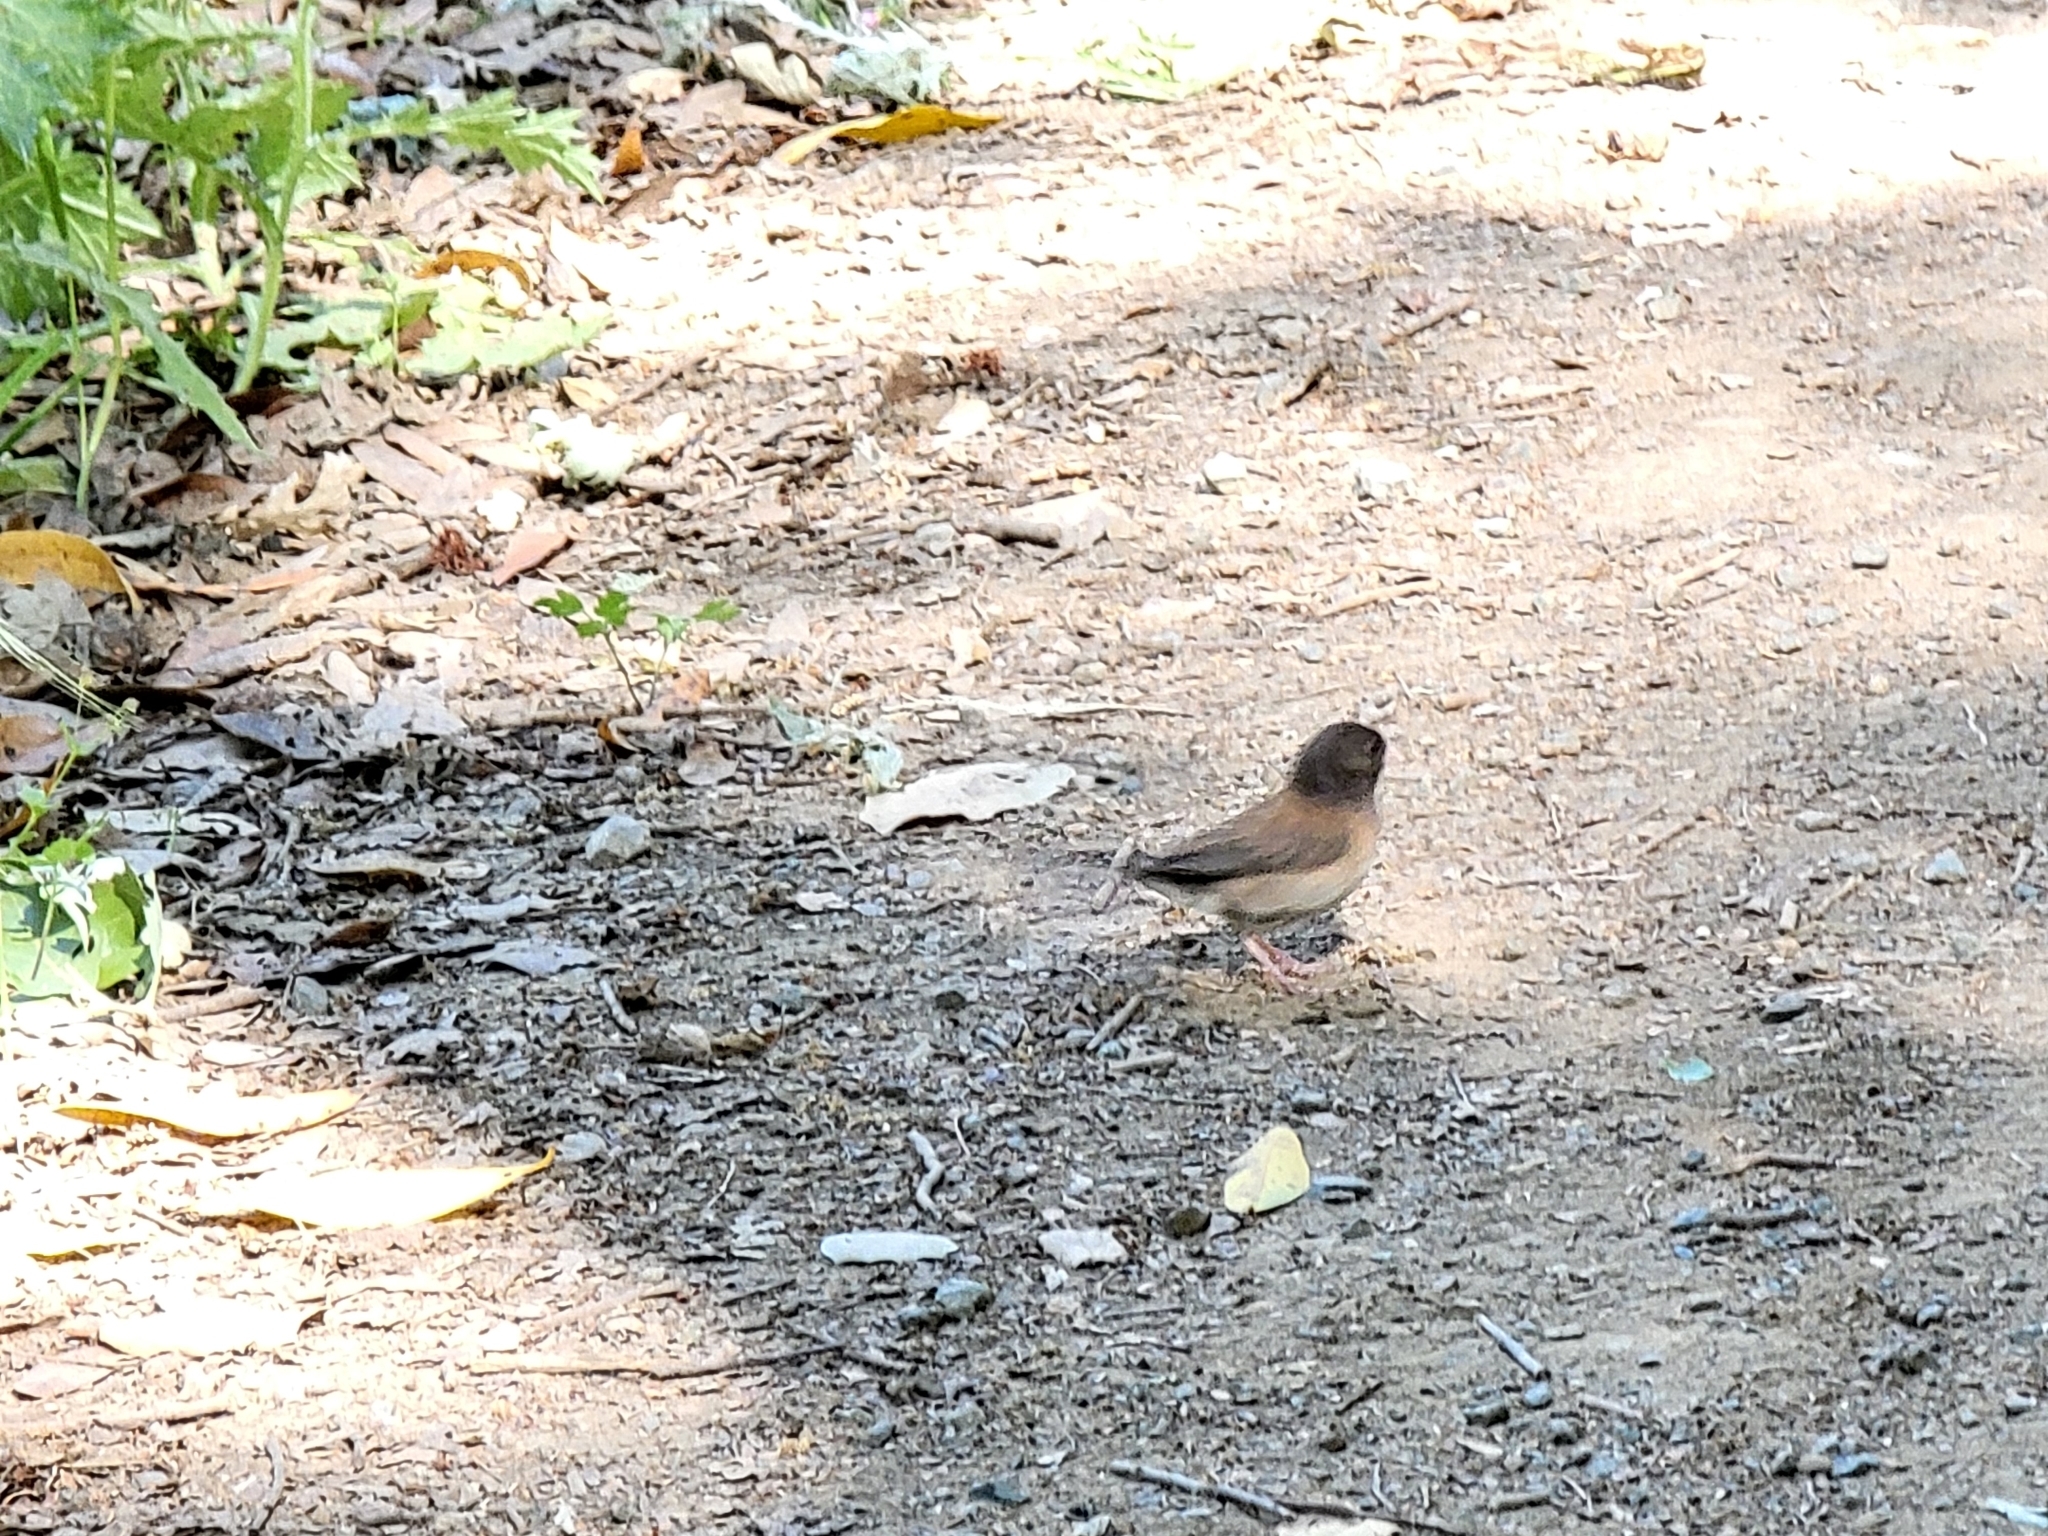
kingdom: Animalia
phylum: Chordata
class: Aves
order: Passeriformes
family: Passerellidae
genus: Junco
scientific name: Junco hyemalis
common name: Dark-eyed junco
